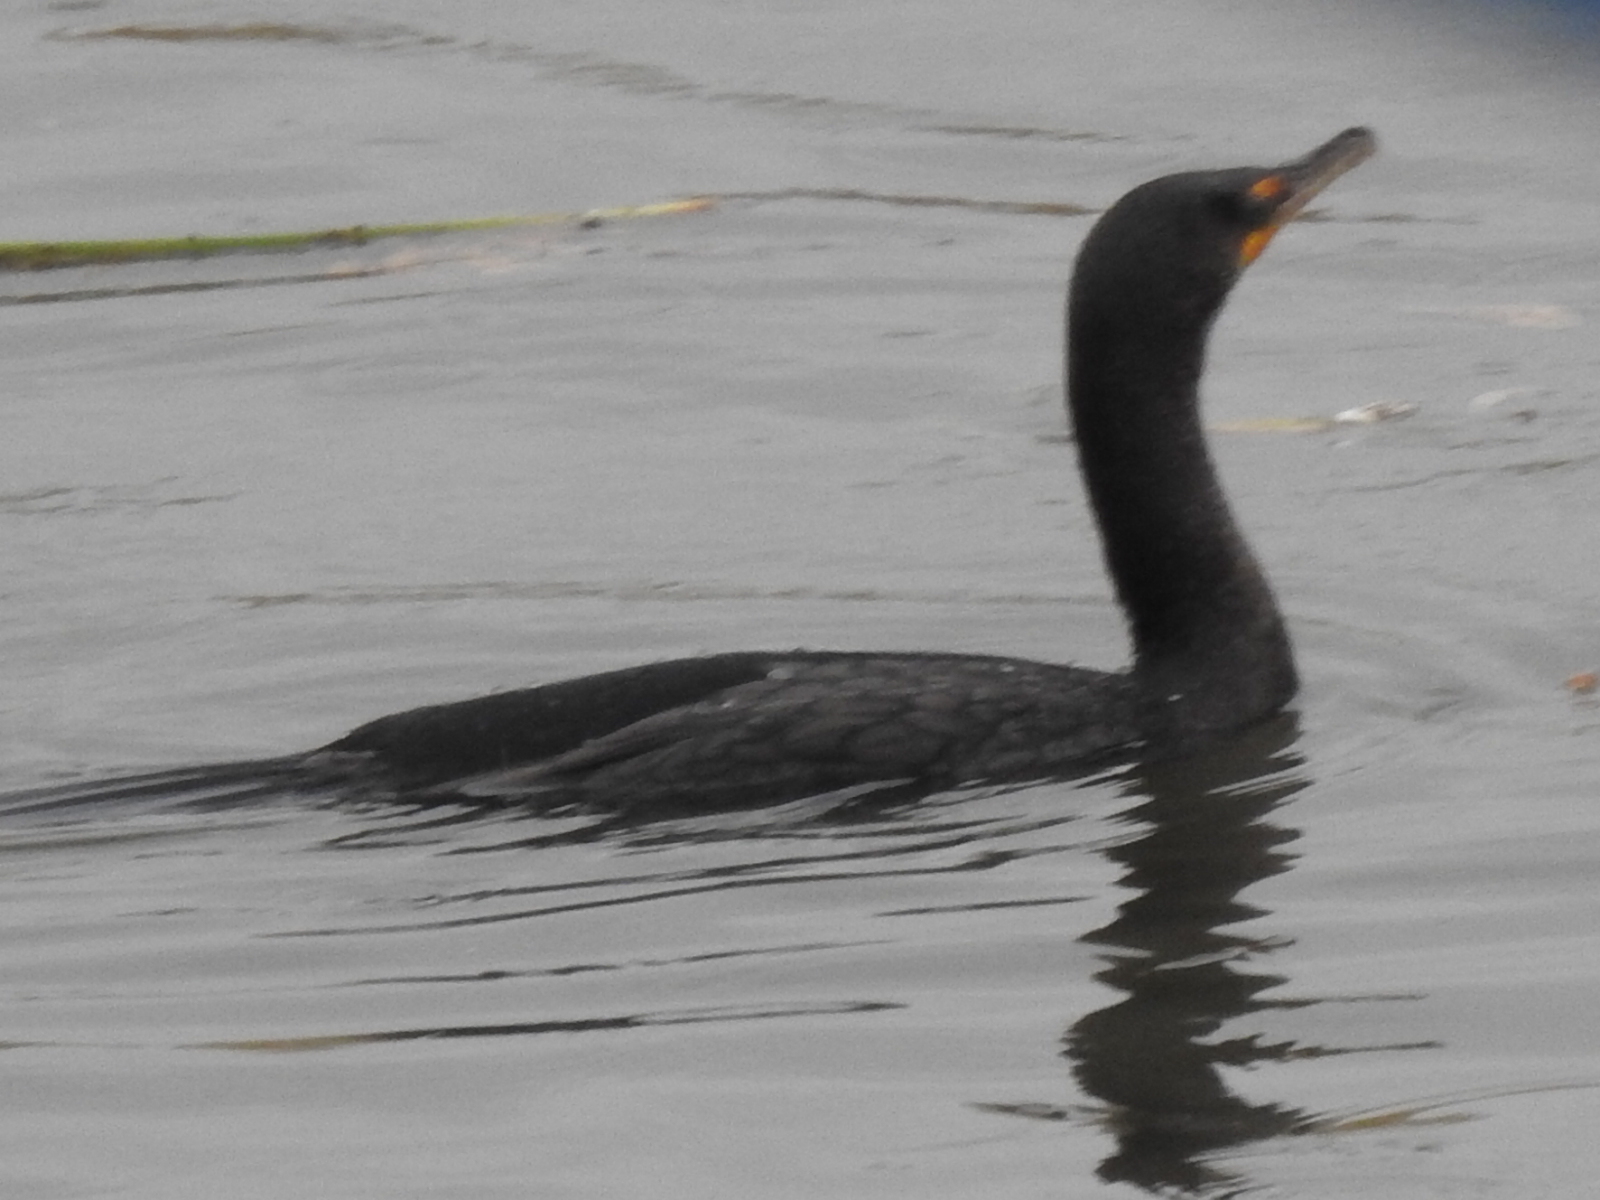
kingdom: Animalia
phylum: Chordata
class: Aves
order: Suliformes
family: Phalacrocoracidae
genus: Phalacrocorax
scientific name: Phalacrocorax auritus
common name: Double-crested cormorant
